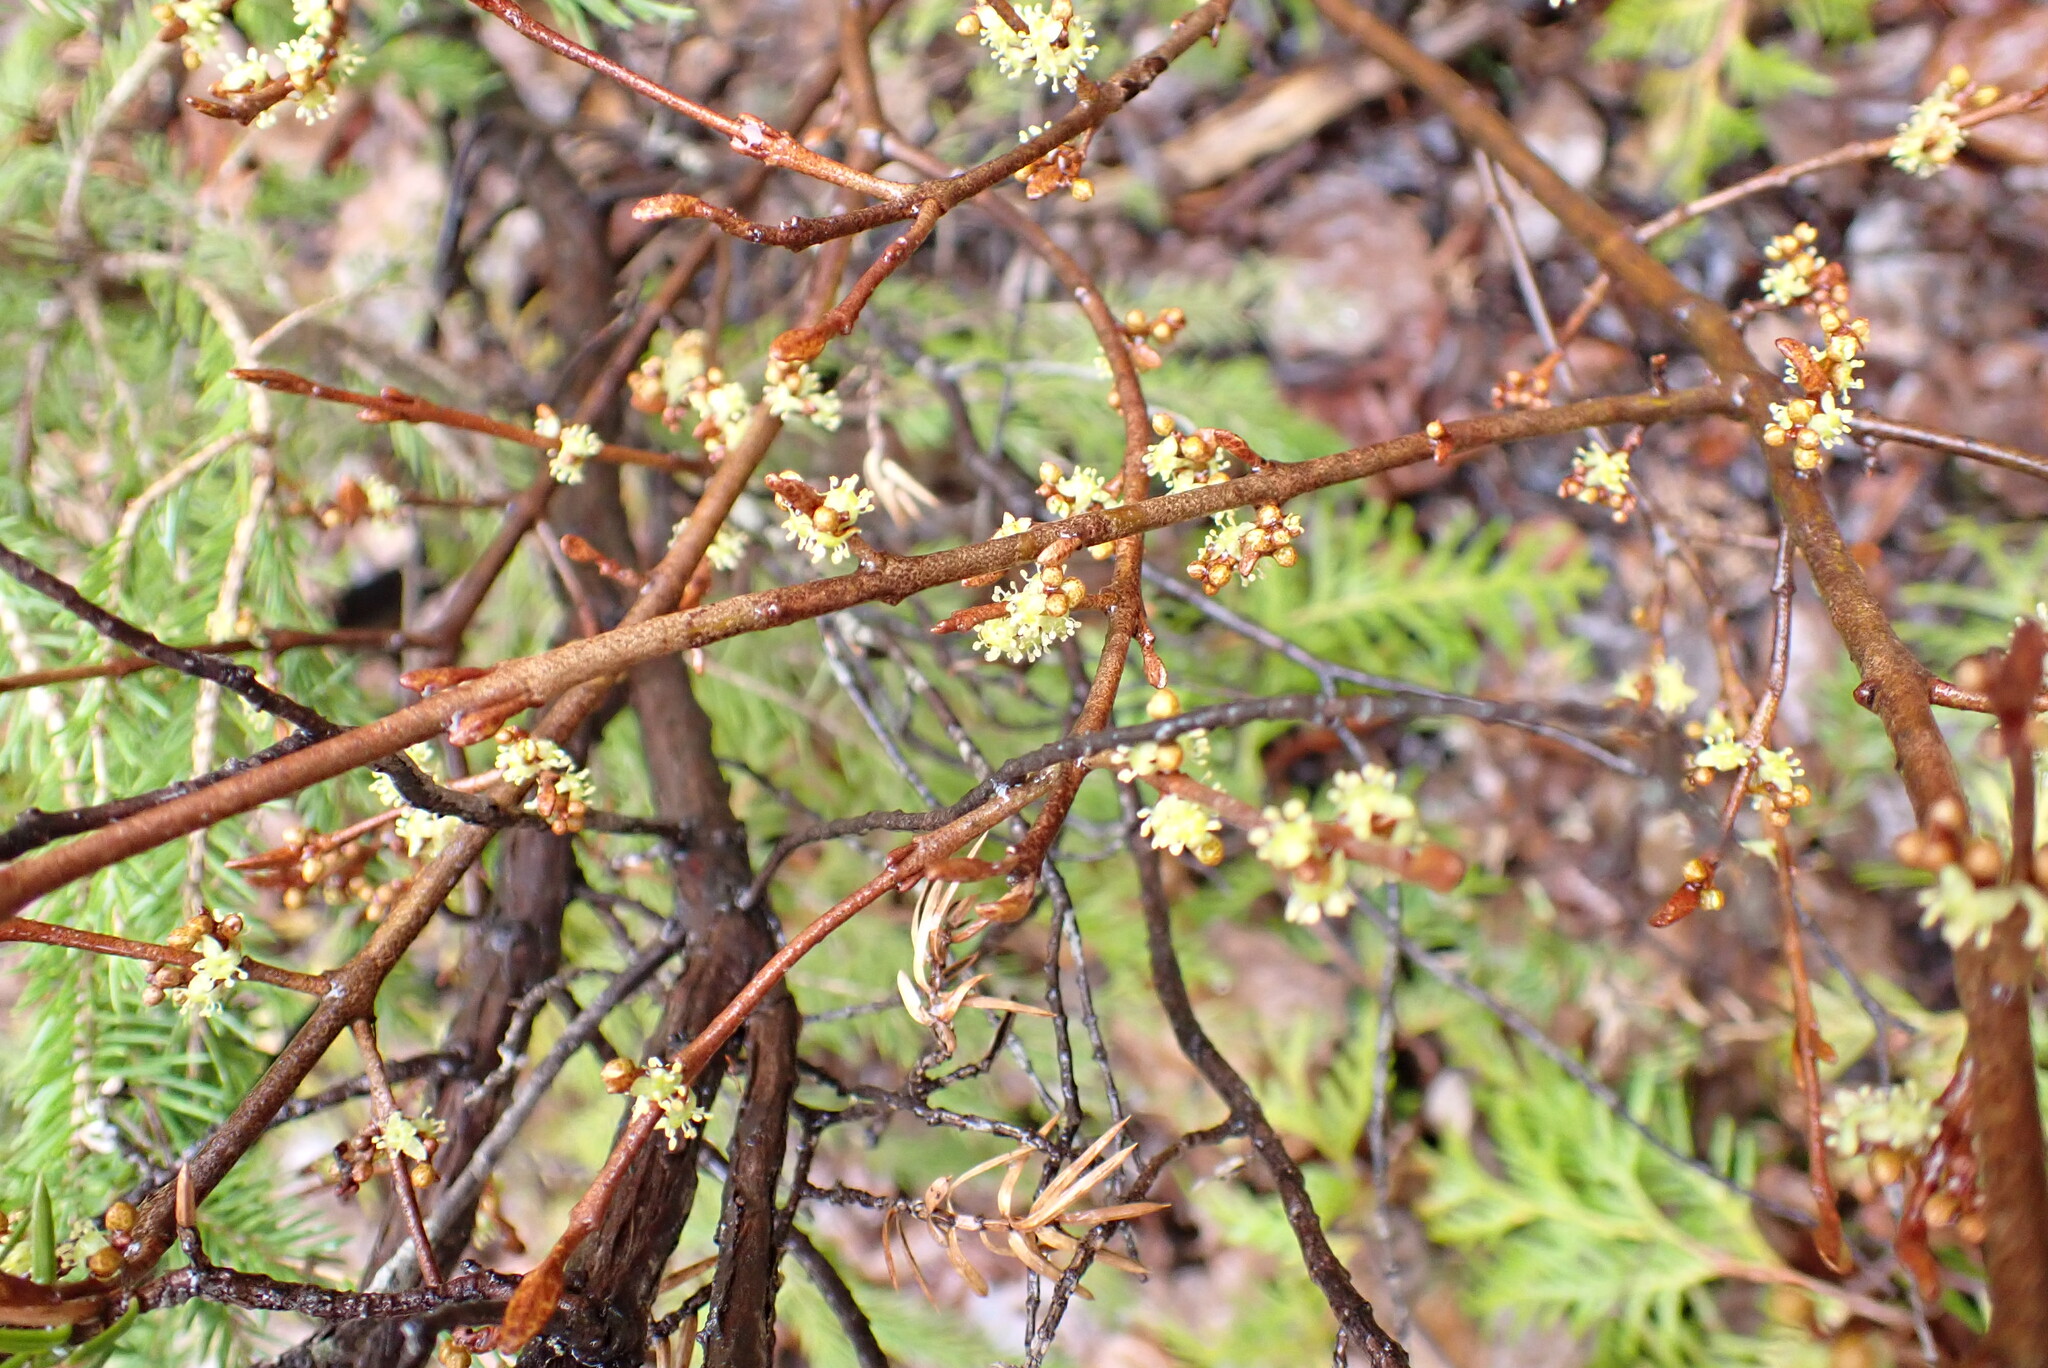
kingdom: Plantae
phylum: Tracheophyta
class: Magnoliopsida
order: Rosales
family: Elaeagnaceae
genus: Shepherdia
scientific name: Shepherdia canadensis
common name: Soapberry
